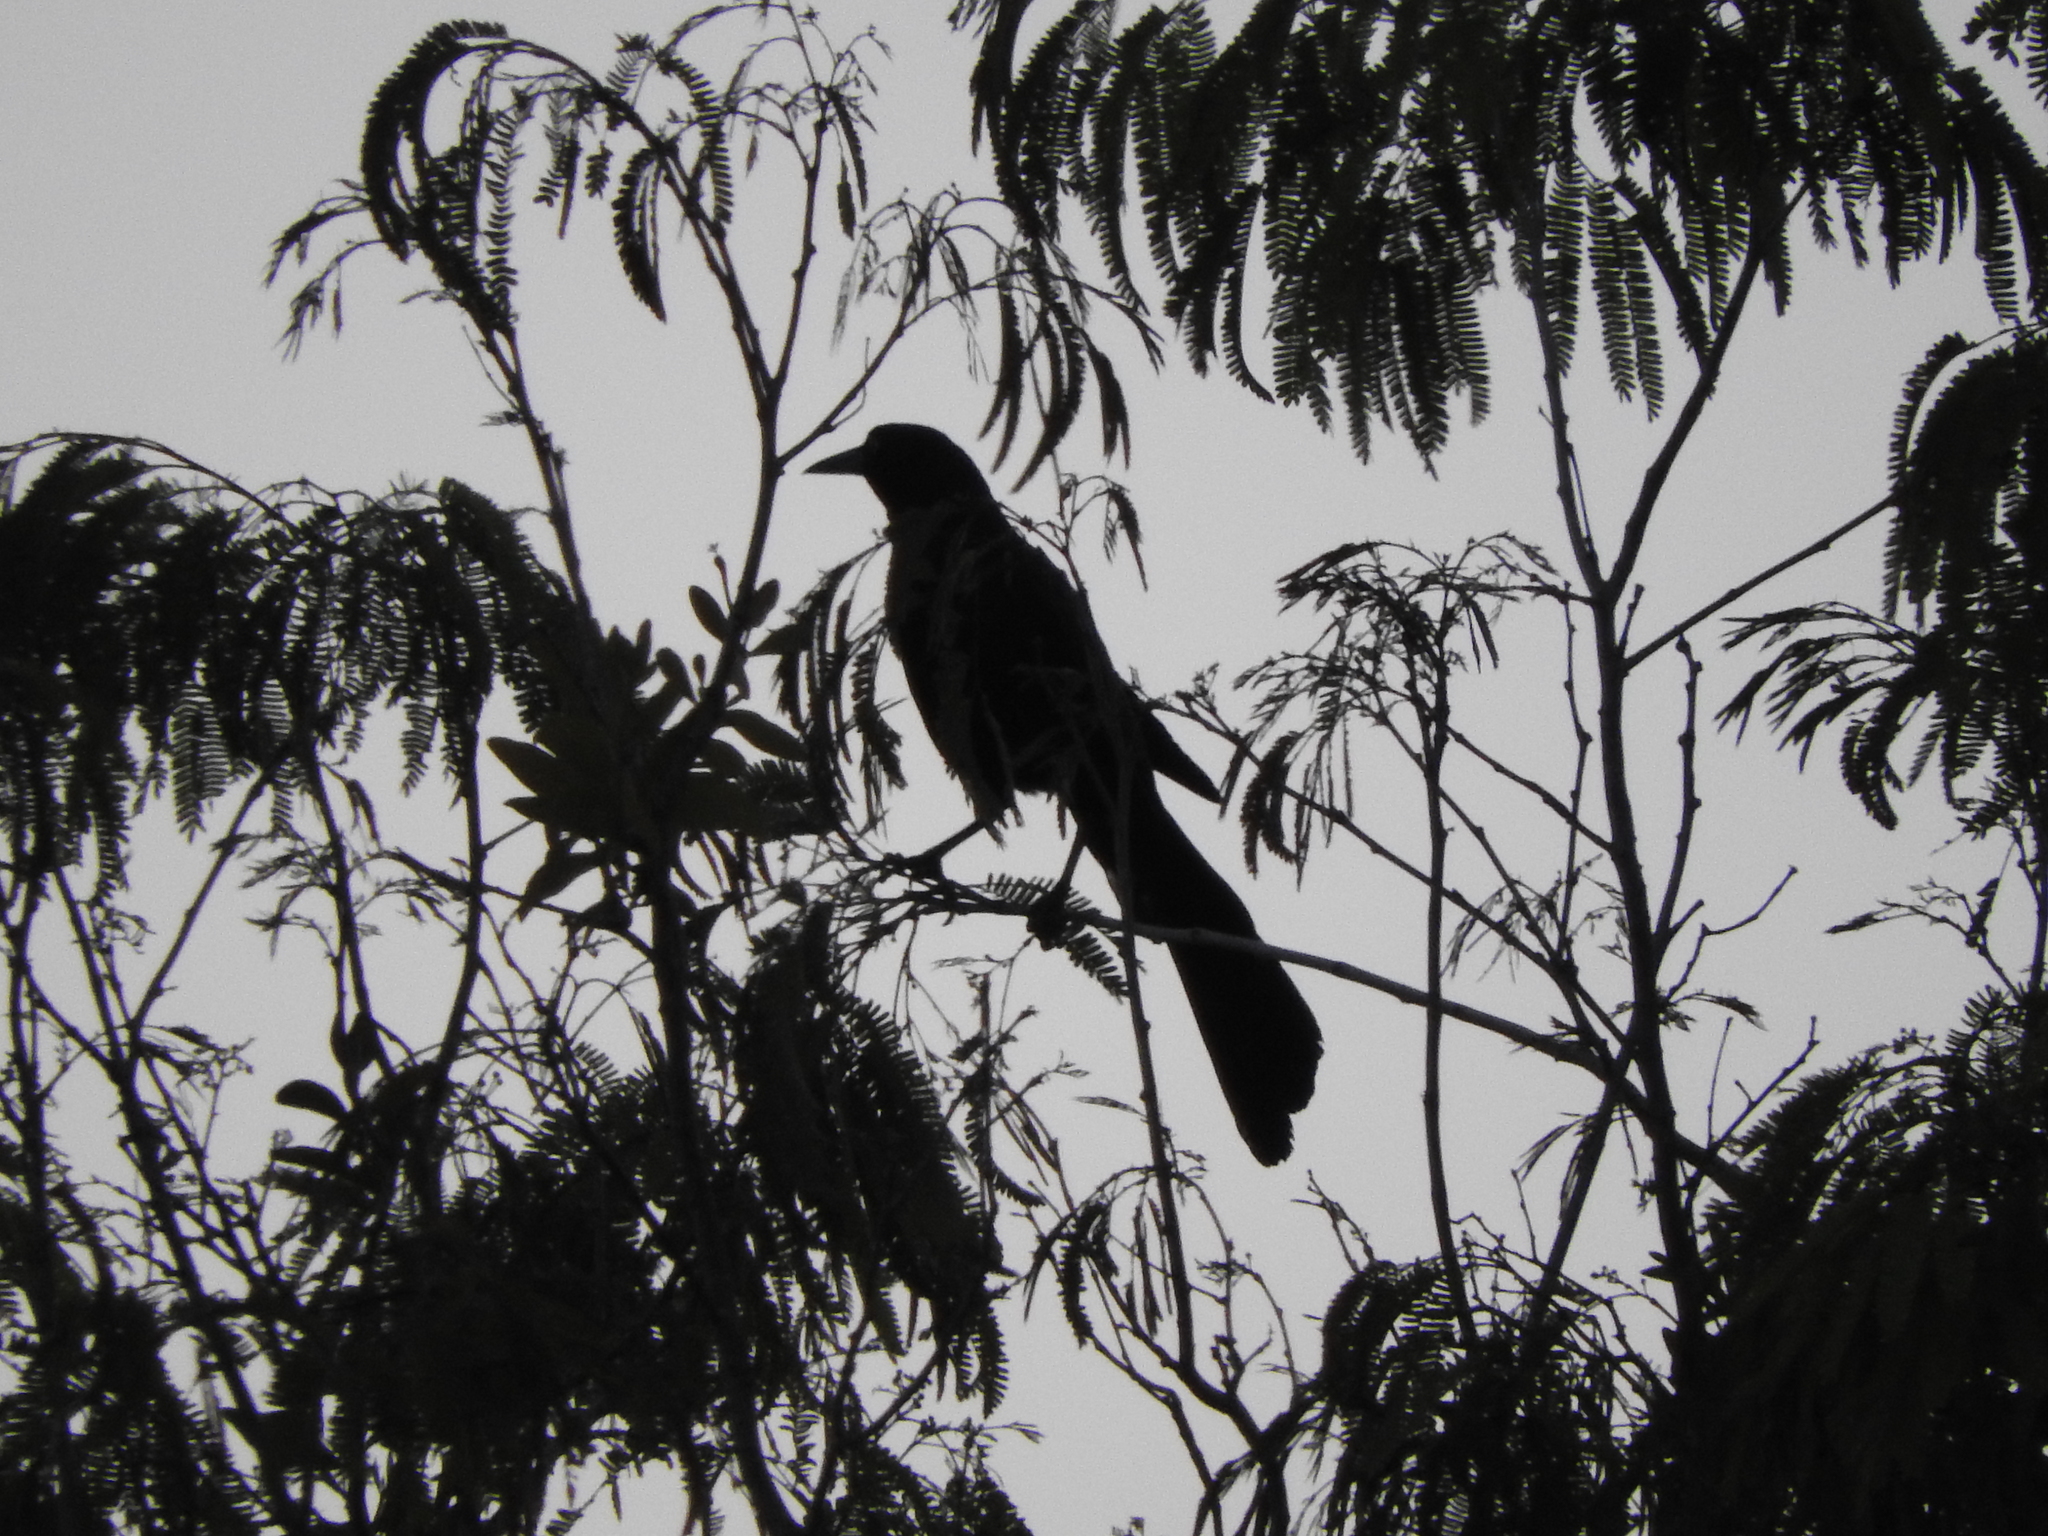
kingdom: Animalia
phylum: Chordata
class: Aves
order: Passeriformes
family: Icteridae
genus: Quiscalus
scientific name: Quiscalus mexicanus
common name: Great-tailed grackle
